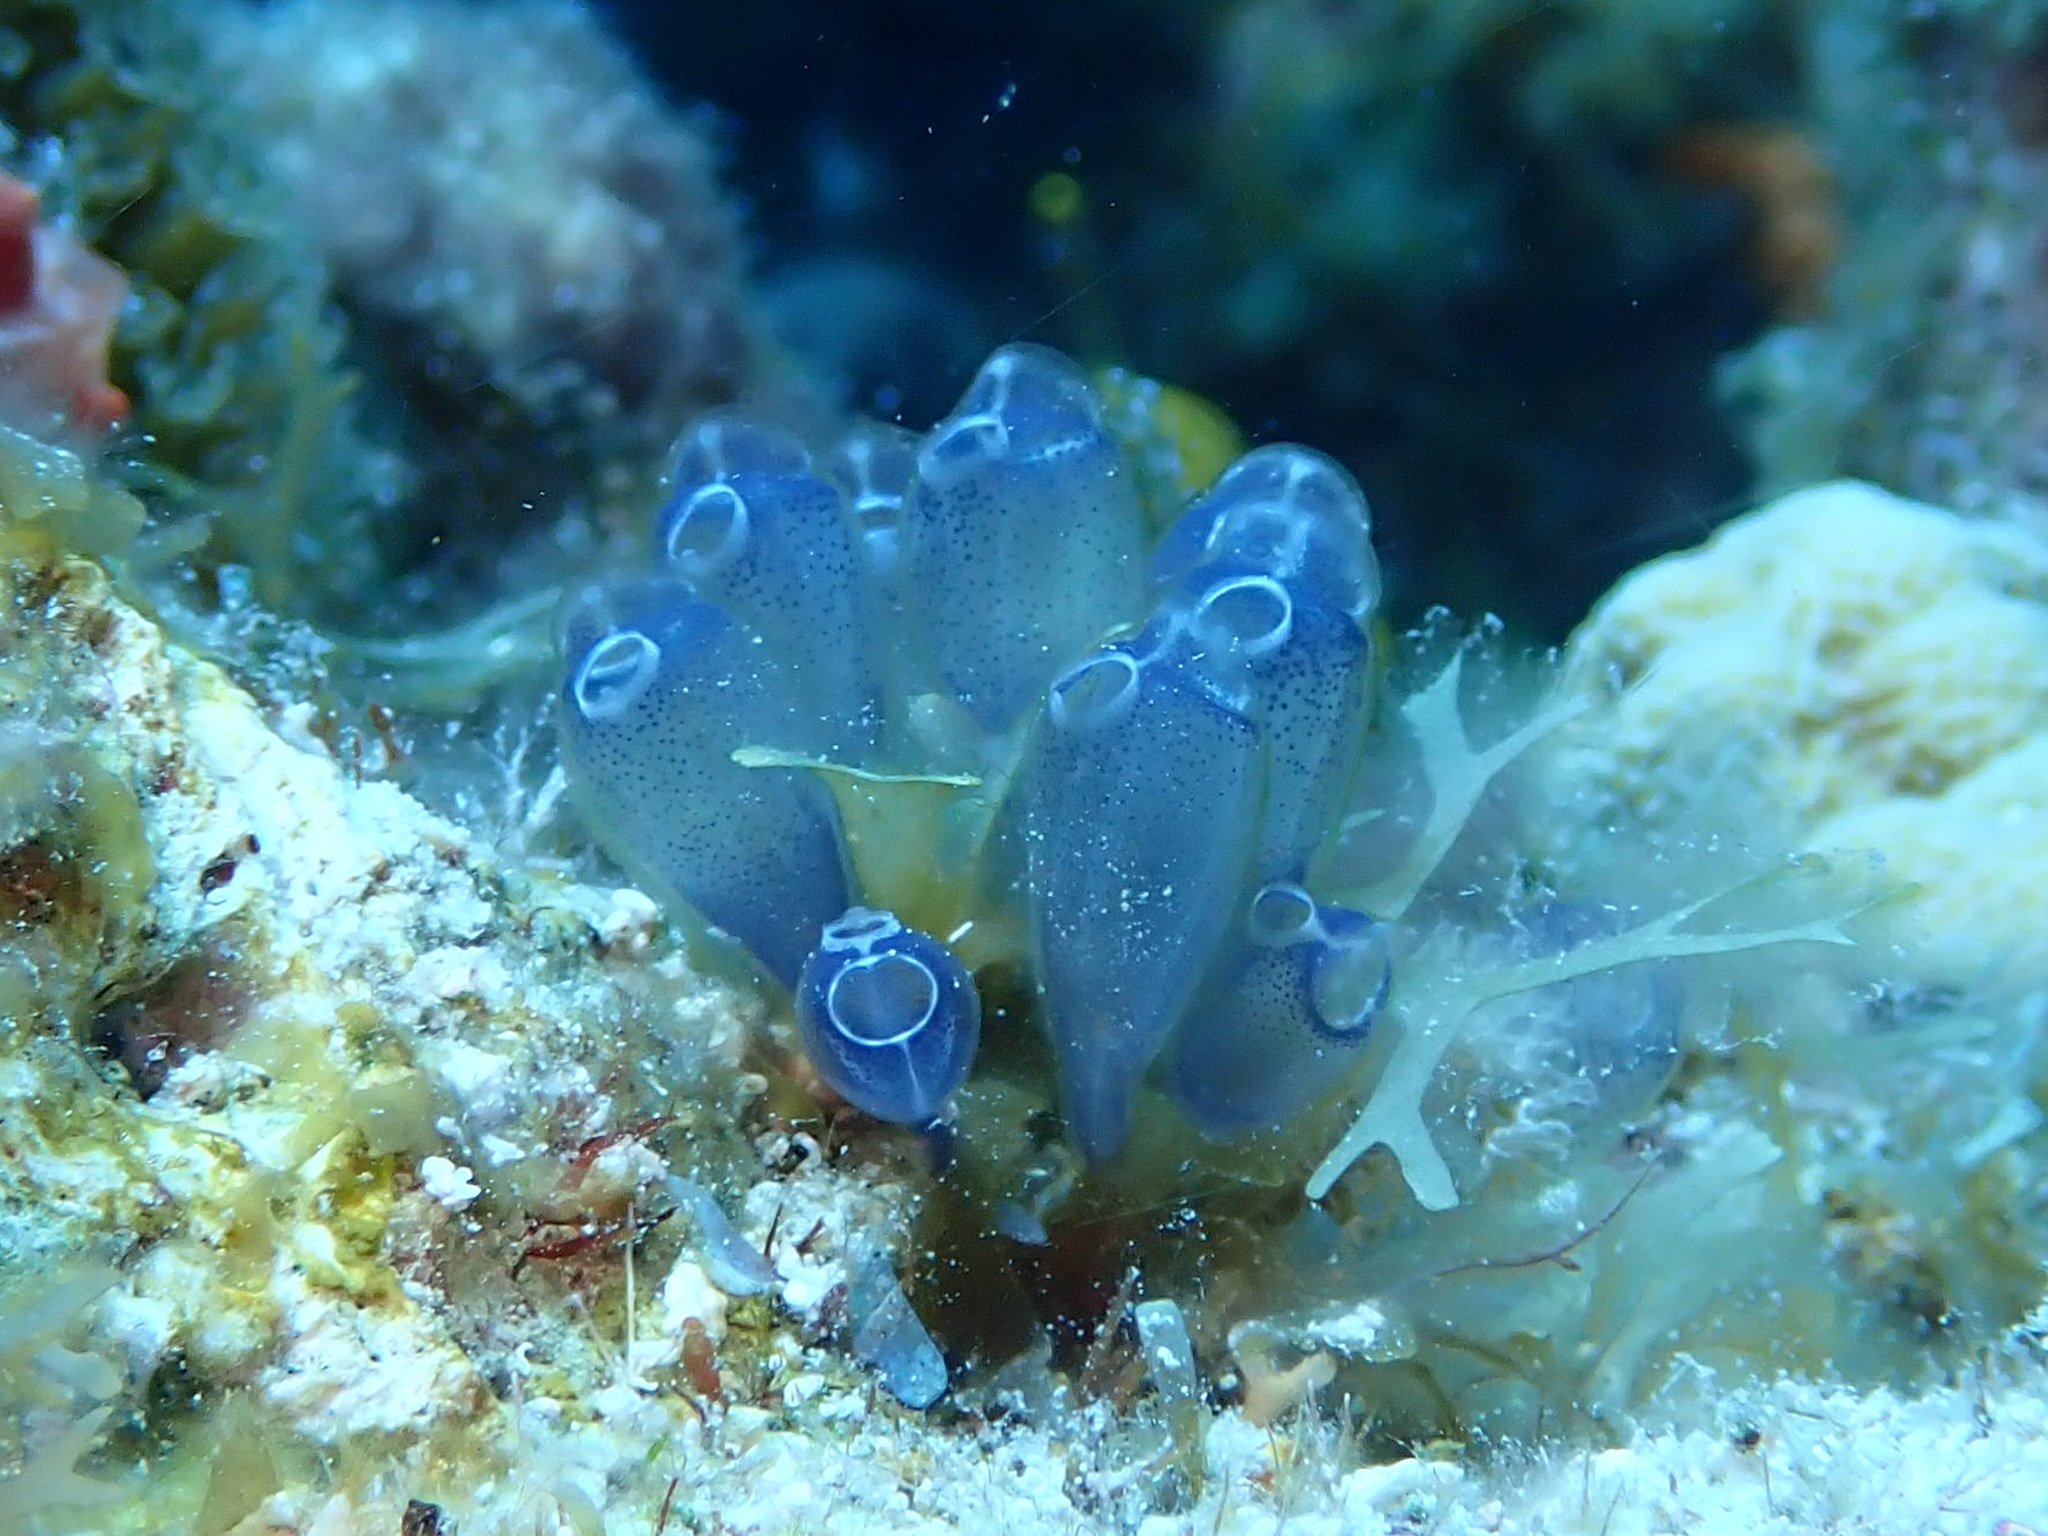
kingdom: Animalia
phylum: Chordata
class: Ascidiacea
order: Aplousobranchia
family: Clavelinidae
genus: Clavelina
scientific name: Clavelina puertosecensis
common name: Blue bell tunicate
